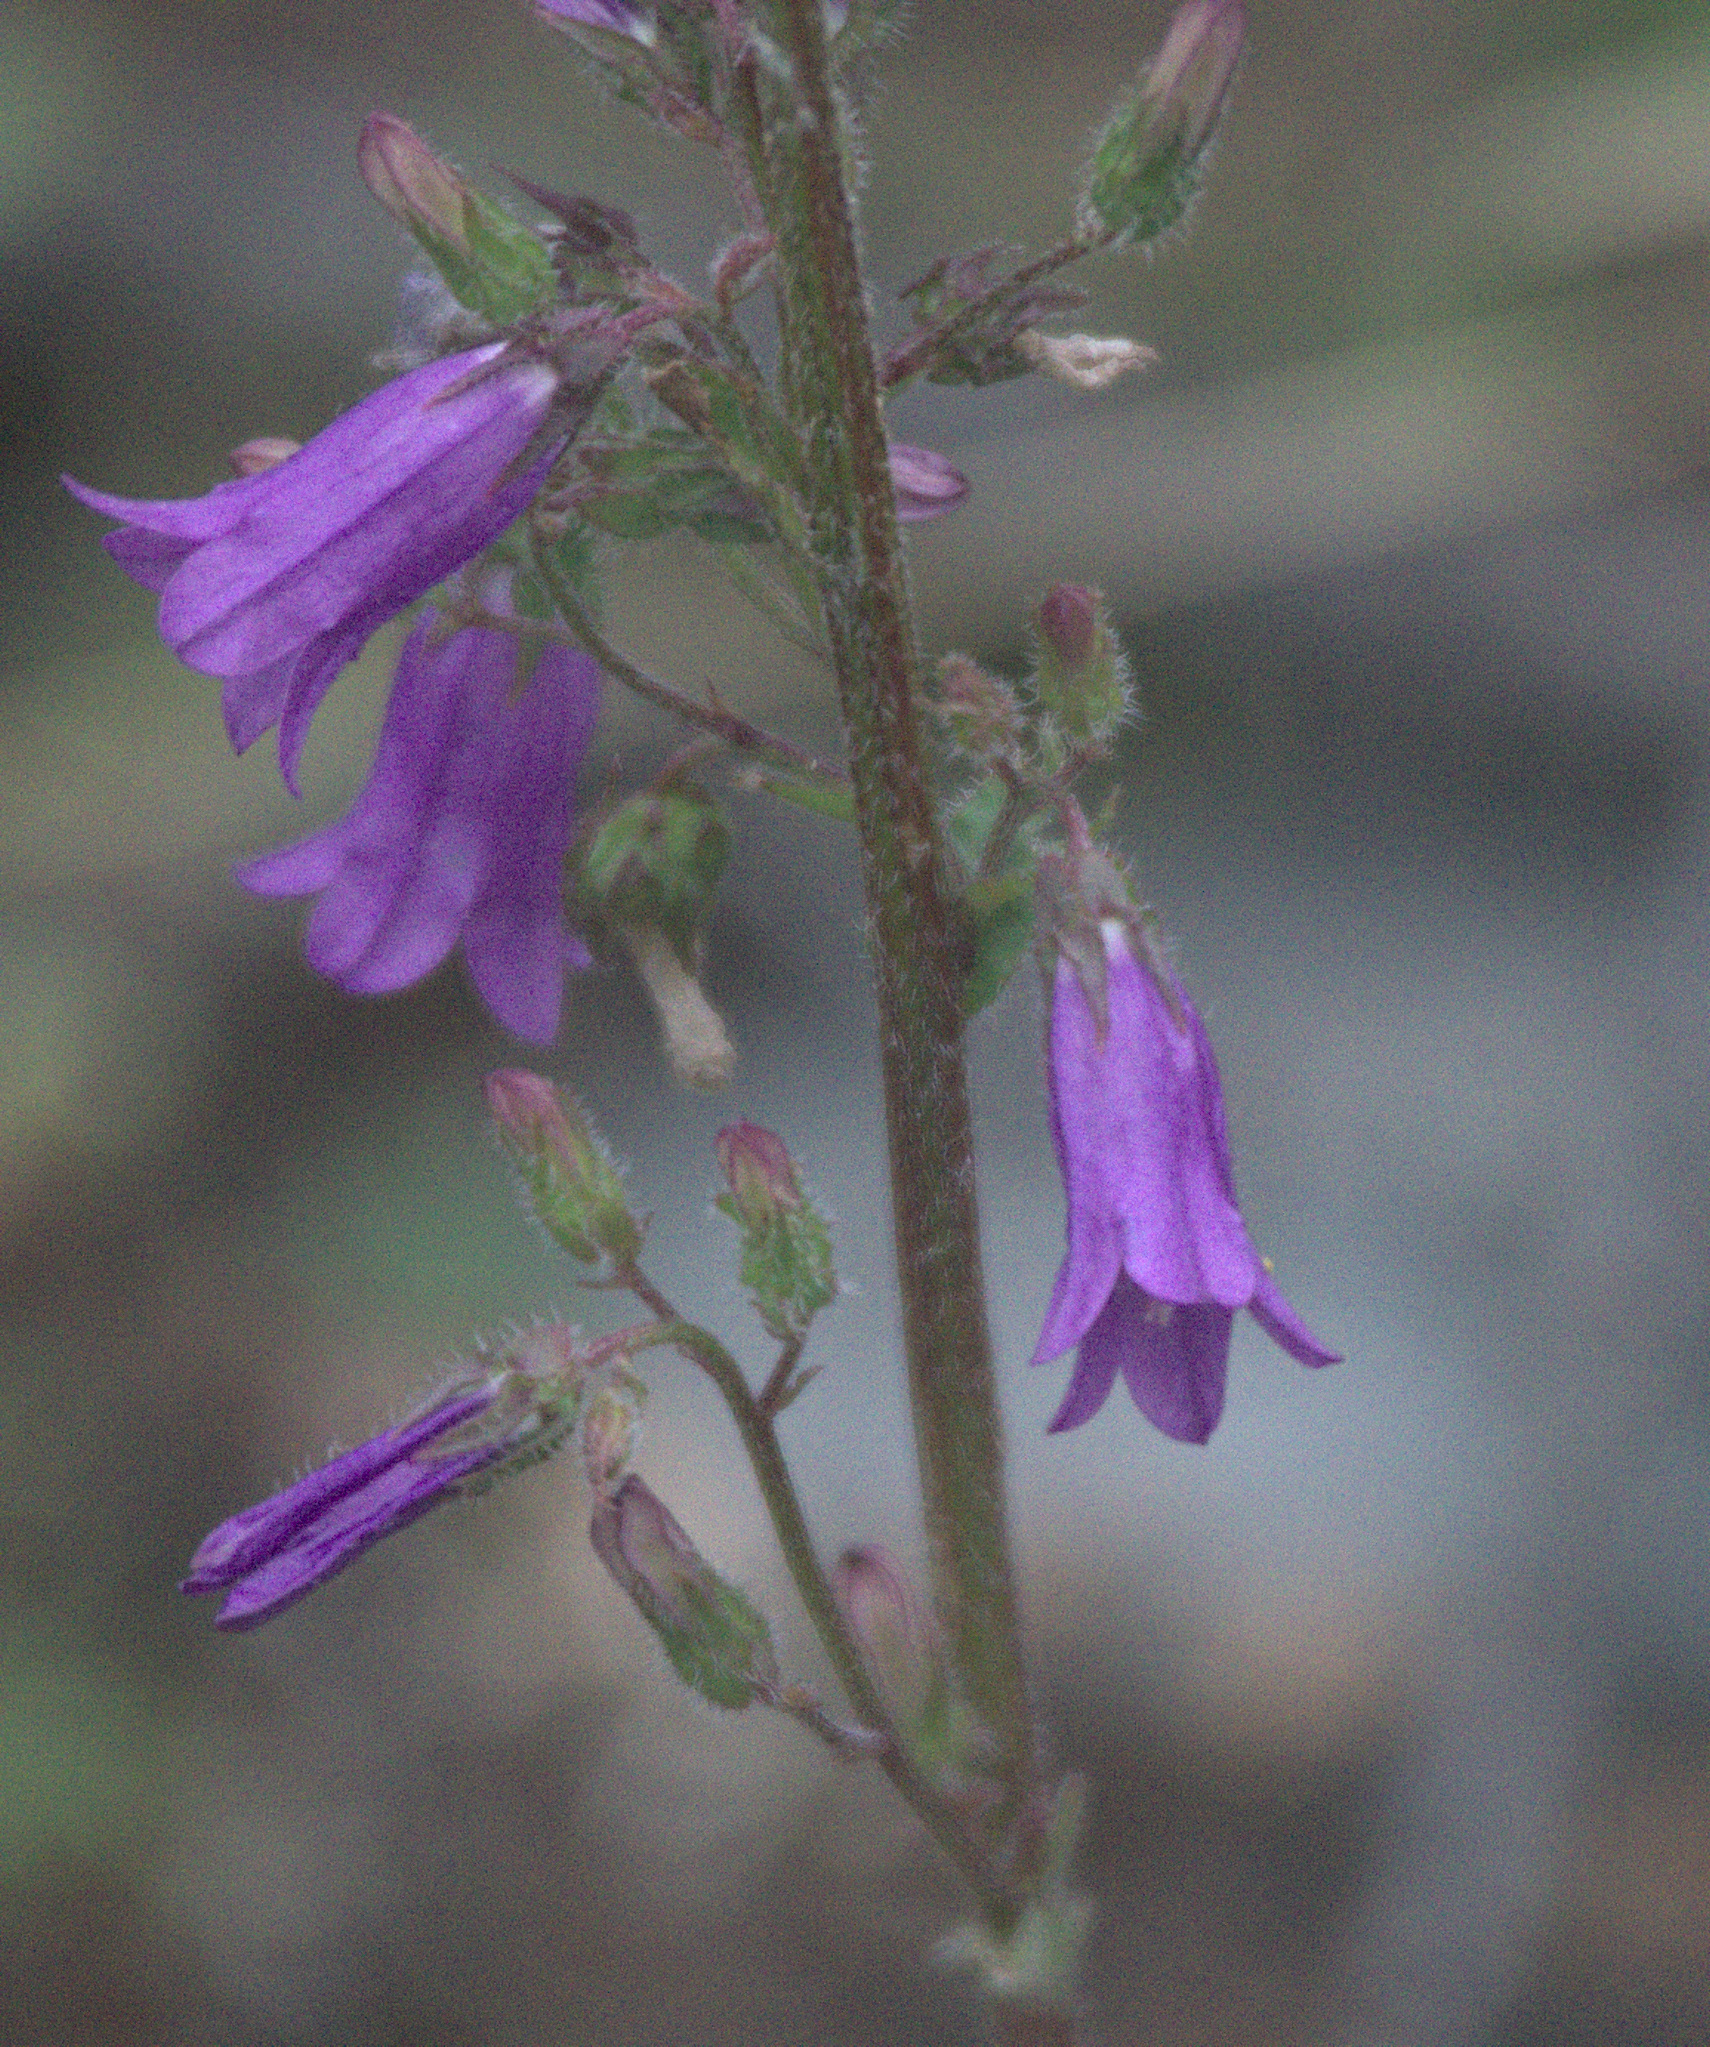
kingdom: Plantae
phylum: Tracheophyta
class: Magnoliopsida
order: Asterales
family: Campanulaceae
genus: Campanula
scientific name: Campanula sibirica
